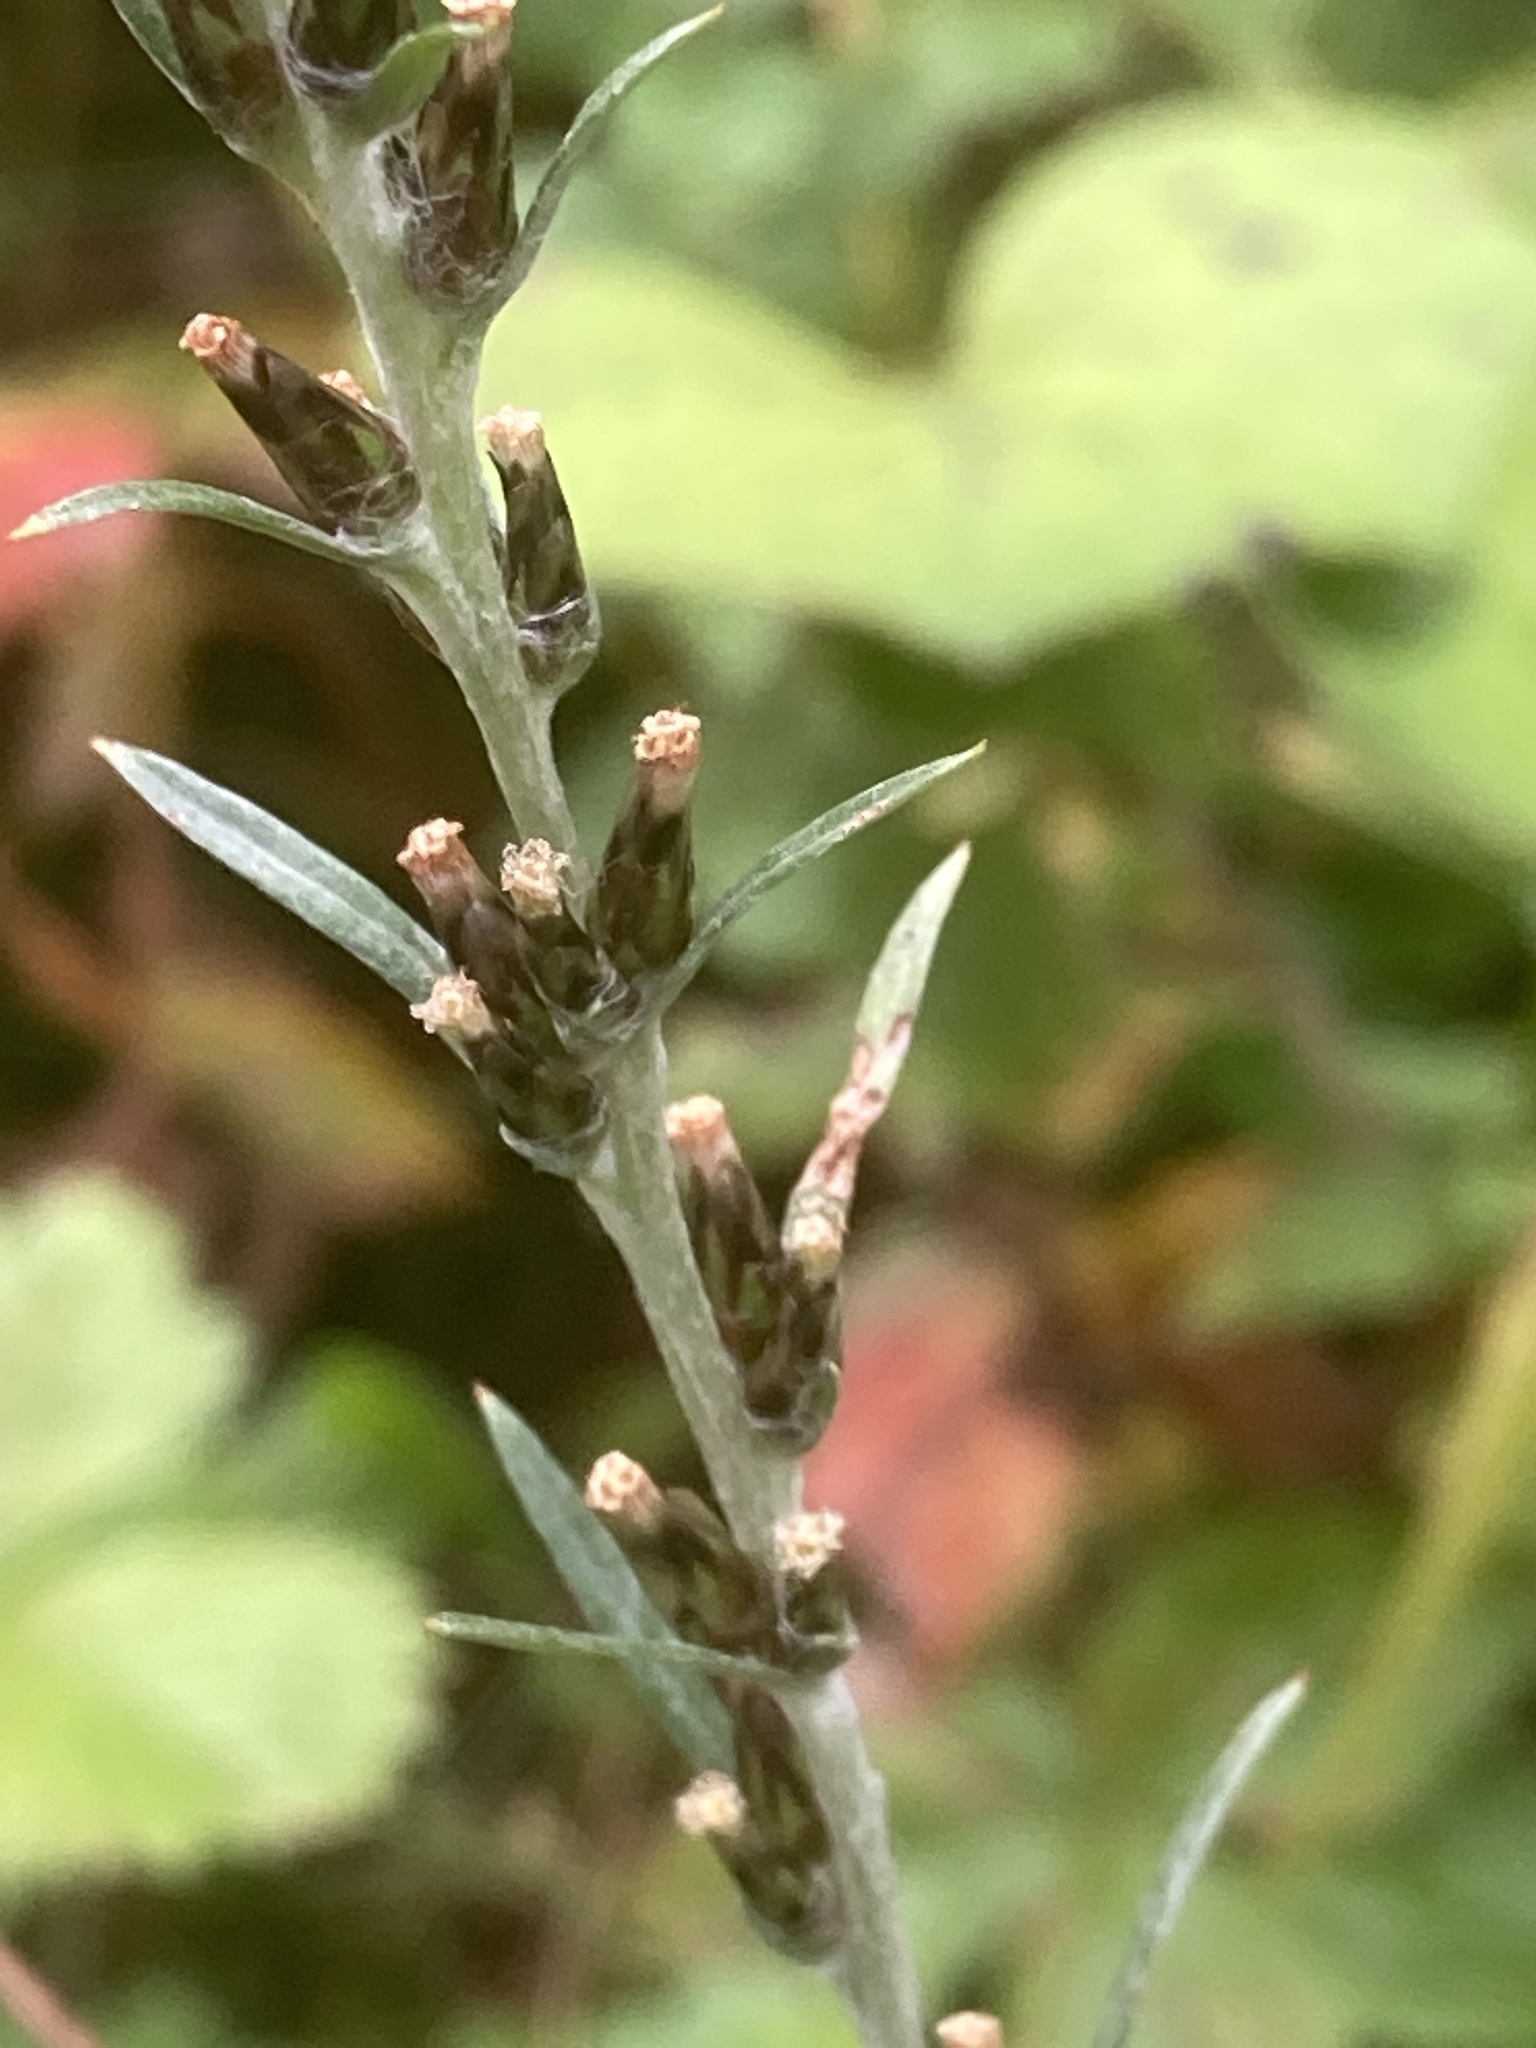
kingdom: Plantae
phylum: Tracheophyta
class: Magnoliopsida
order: Asterales
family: Asteraceae
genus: Omalotheca
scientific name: Omalotheca sylvatica
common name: Heath cudweed
